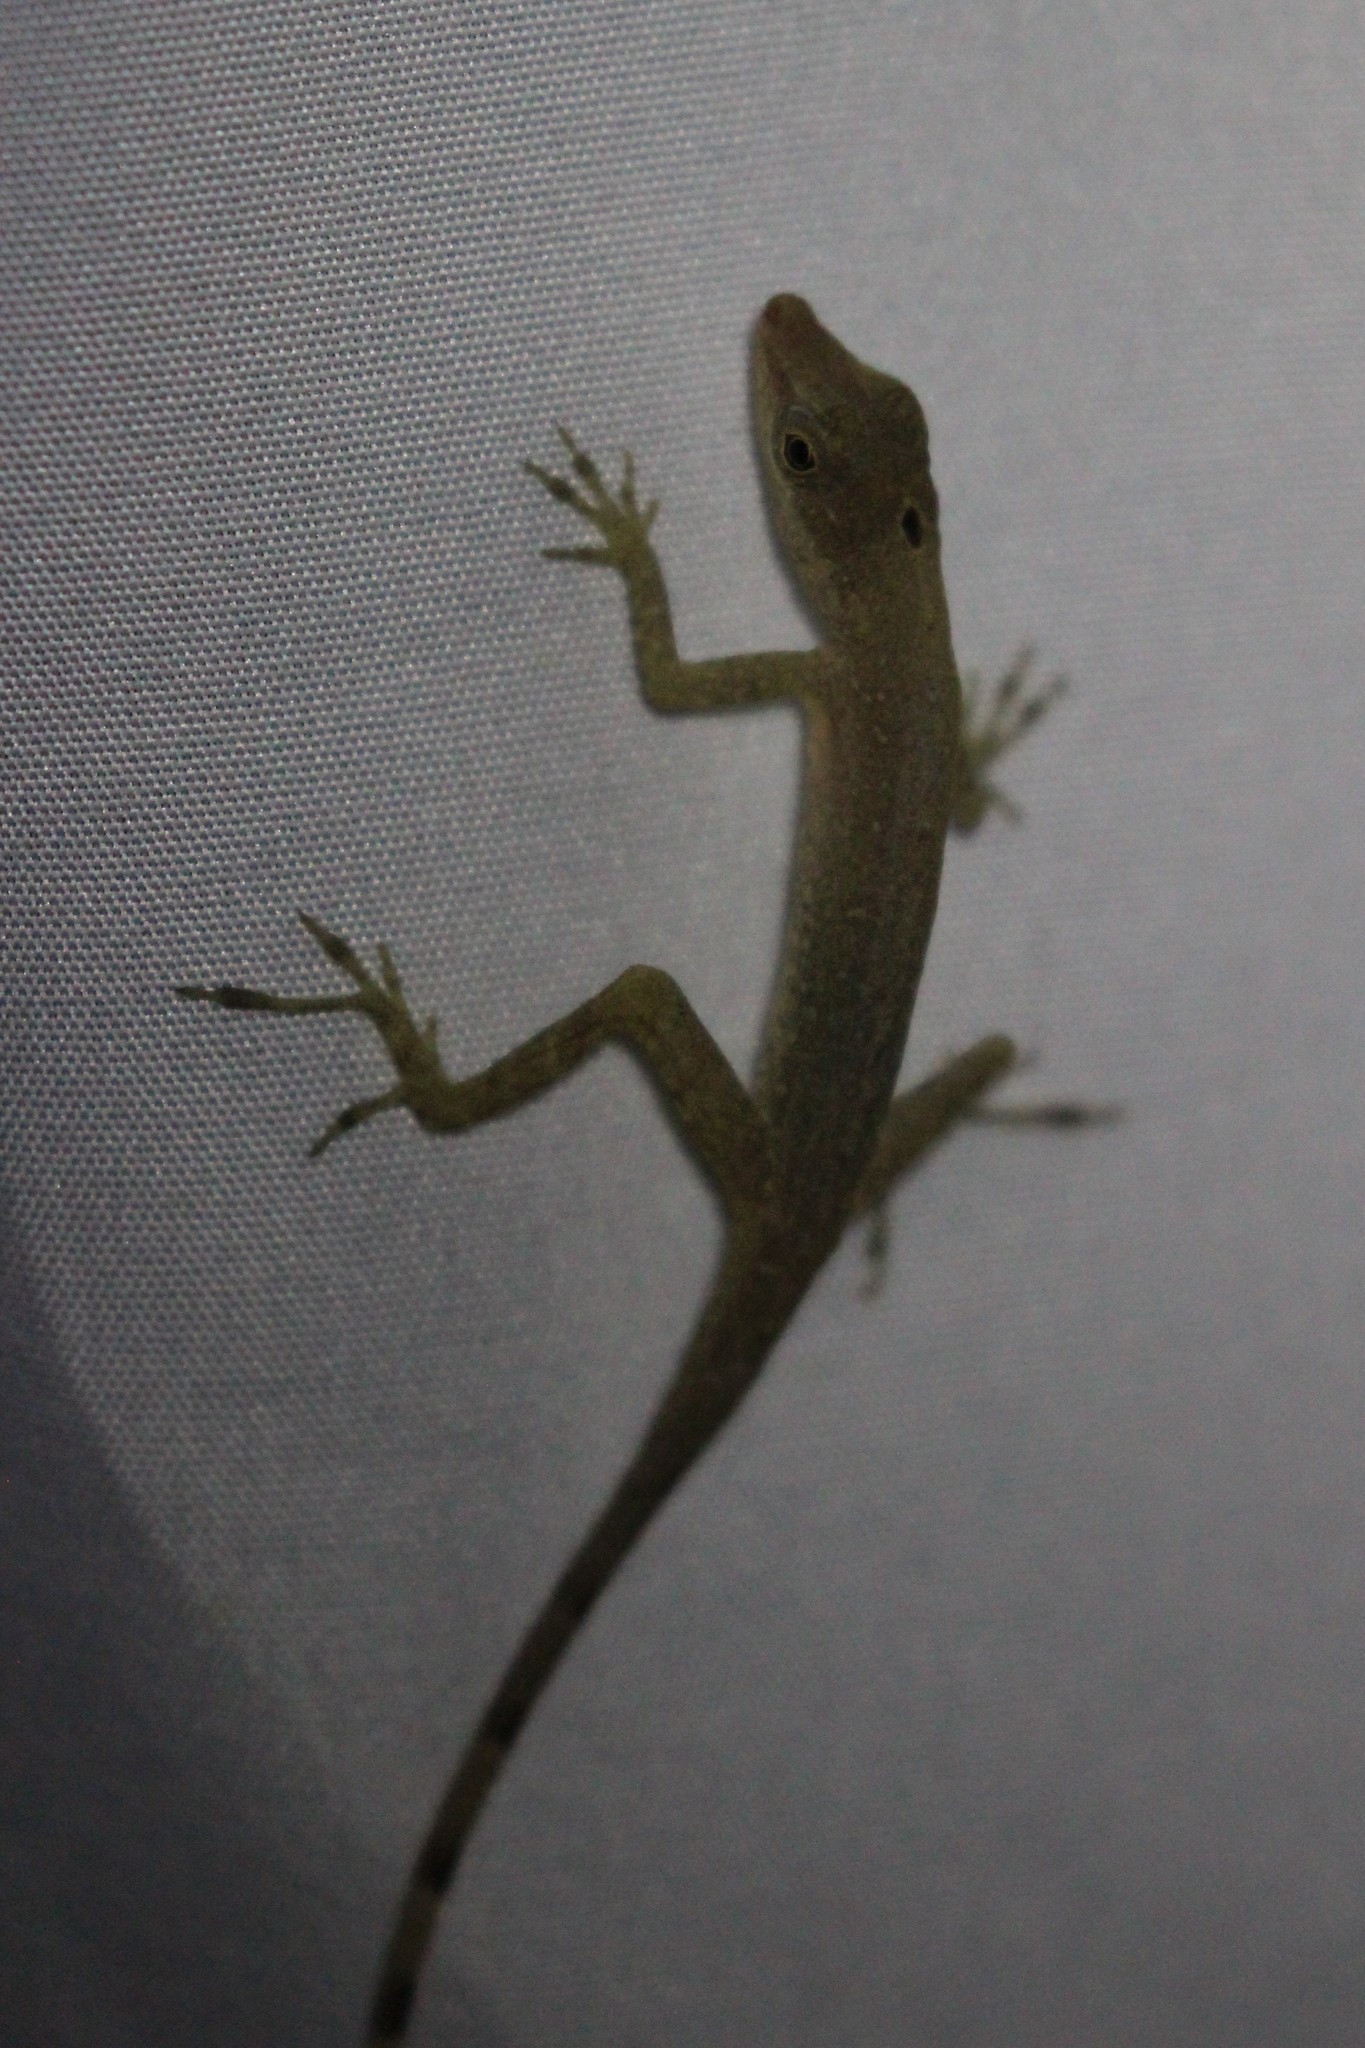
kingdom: Animalia
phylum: Chordata
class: Squamata
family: Dactyloidae
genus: Anolis
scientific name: Anolis limifrons
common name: Border anole
